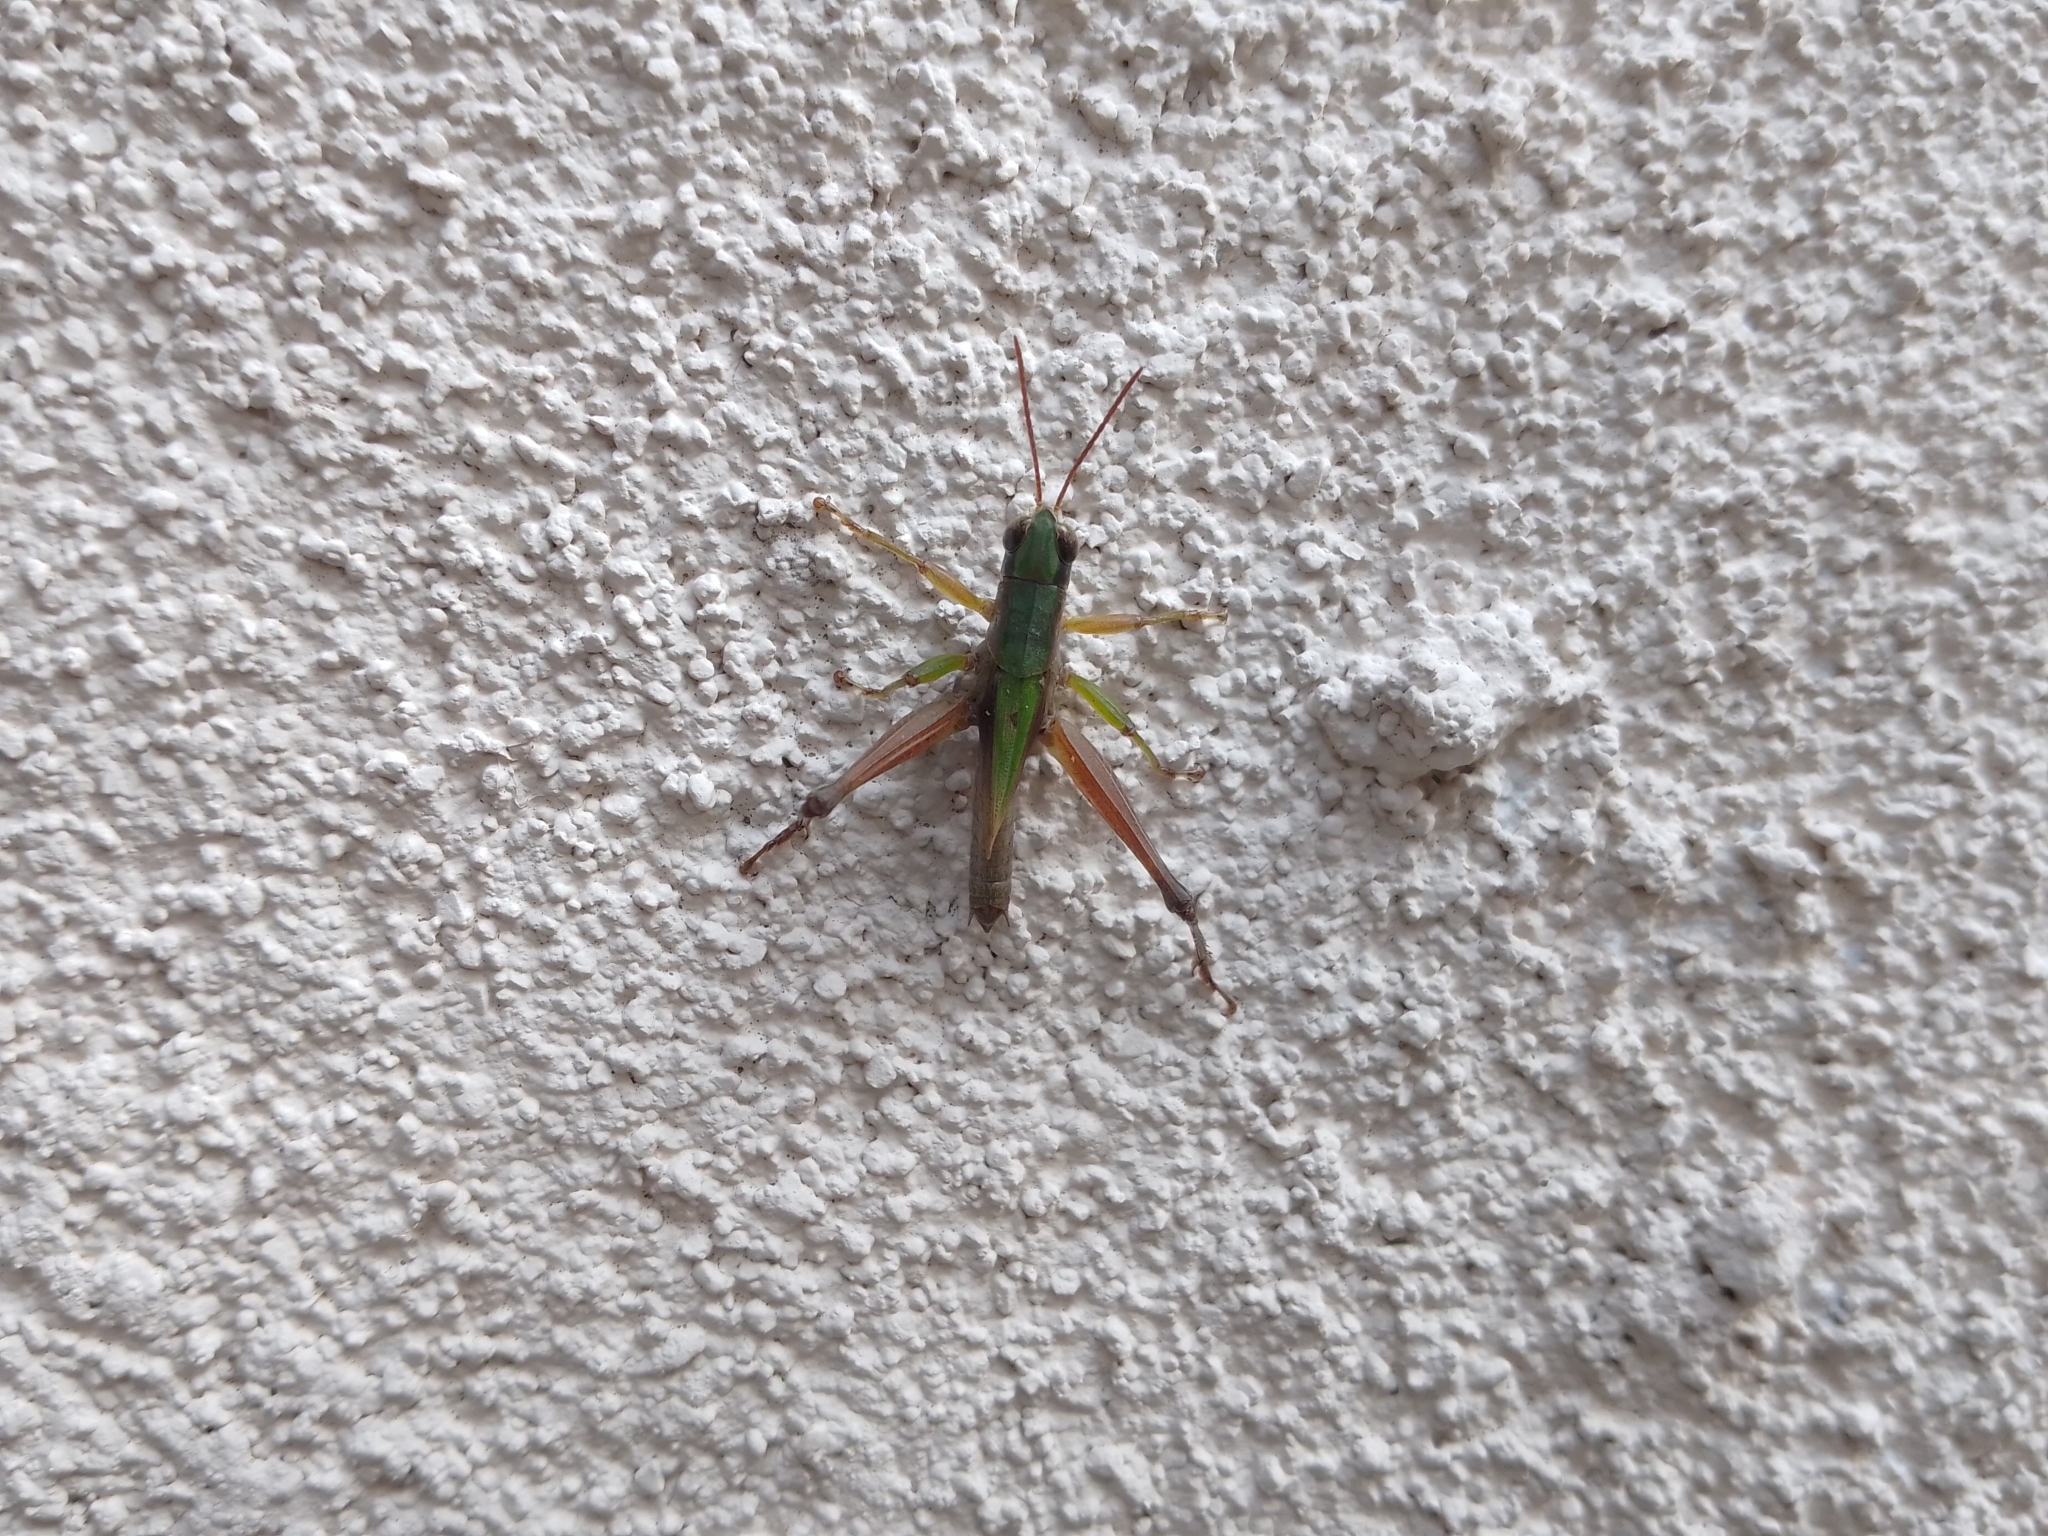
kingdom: Animalia
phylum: Arthropoda
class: Insecta
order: Orthoptera
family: Acrididae
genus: Dichromorpha
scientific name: Dichromorpha viridis
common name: Short-winged green grasshopper
